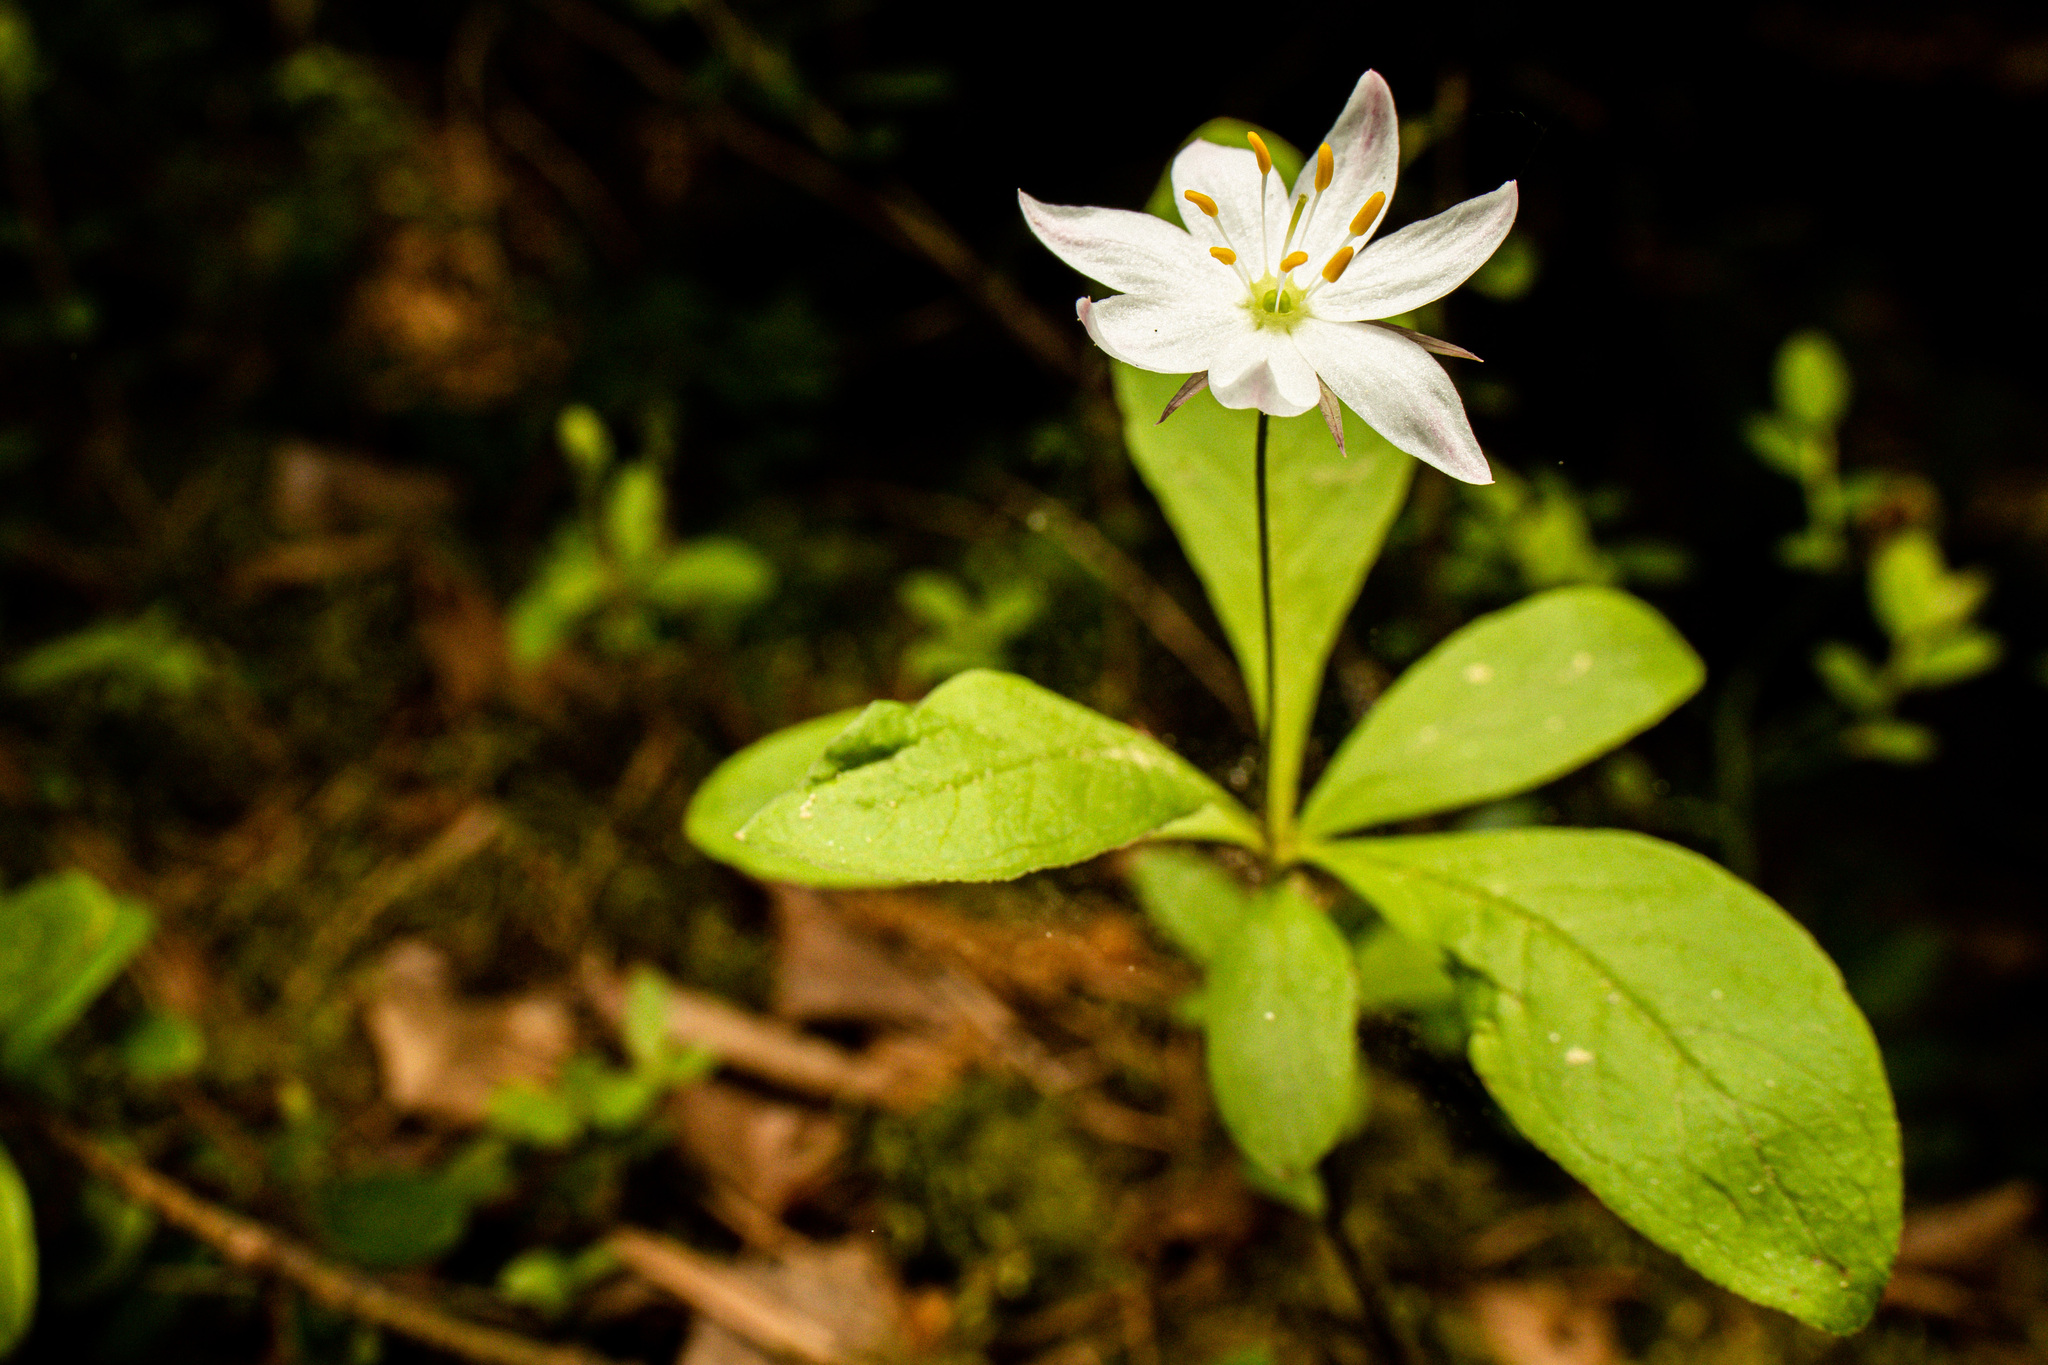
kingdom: Plantae
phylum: Tracheophyta
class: Magnoliopsida
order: Ericales
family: Primulaceae
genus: Lysimachia
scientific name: Lysimachia europaea
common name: Arctic starflower
